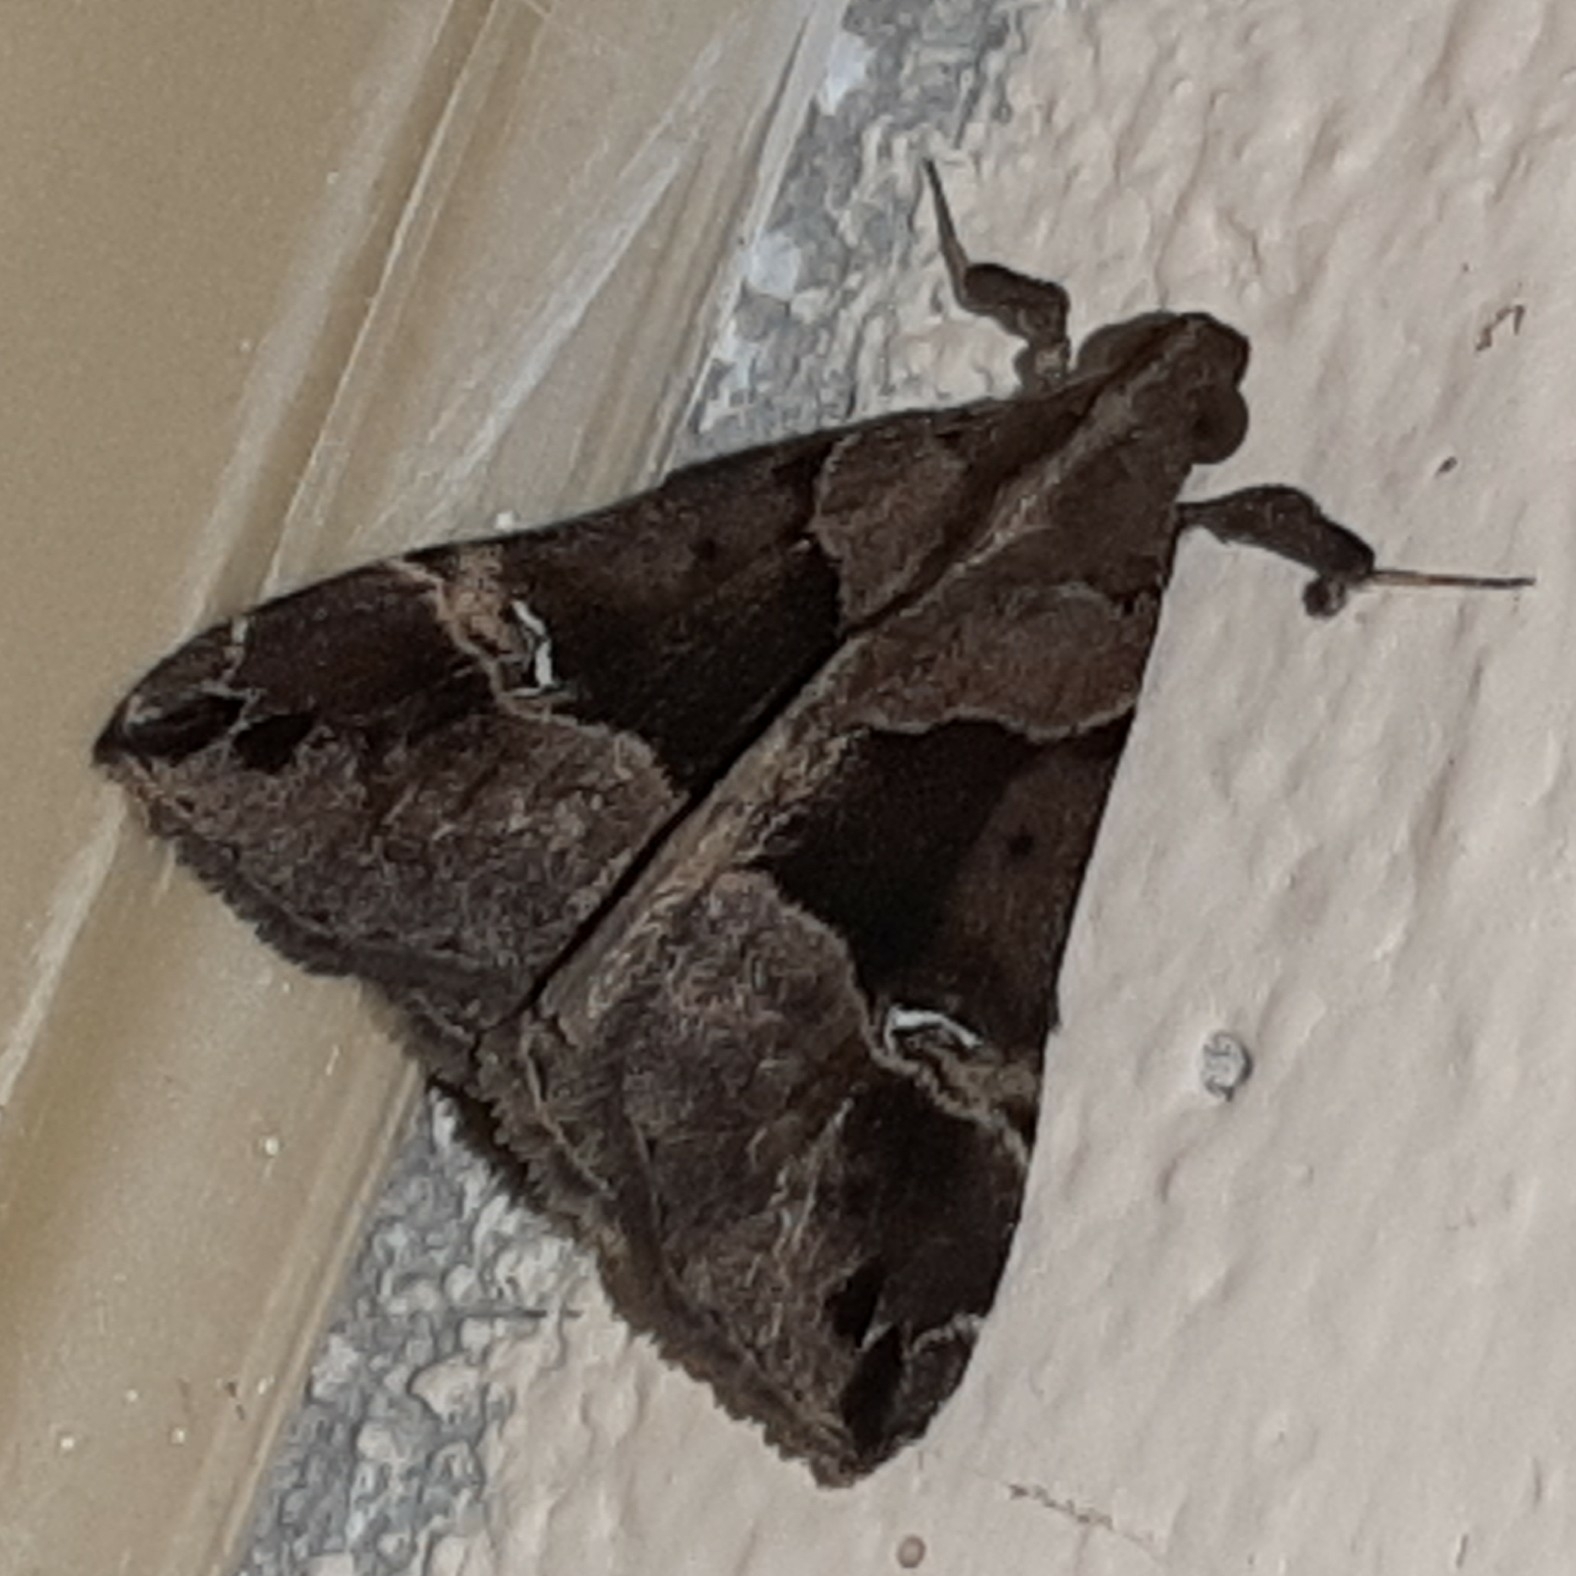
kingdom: Animalia
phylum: Arthropoda
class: Insecta
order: Lepidoptera
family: Erebidae
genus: Scopifera
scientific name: Scopifera falsirenalis
